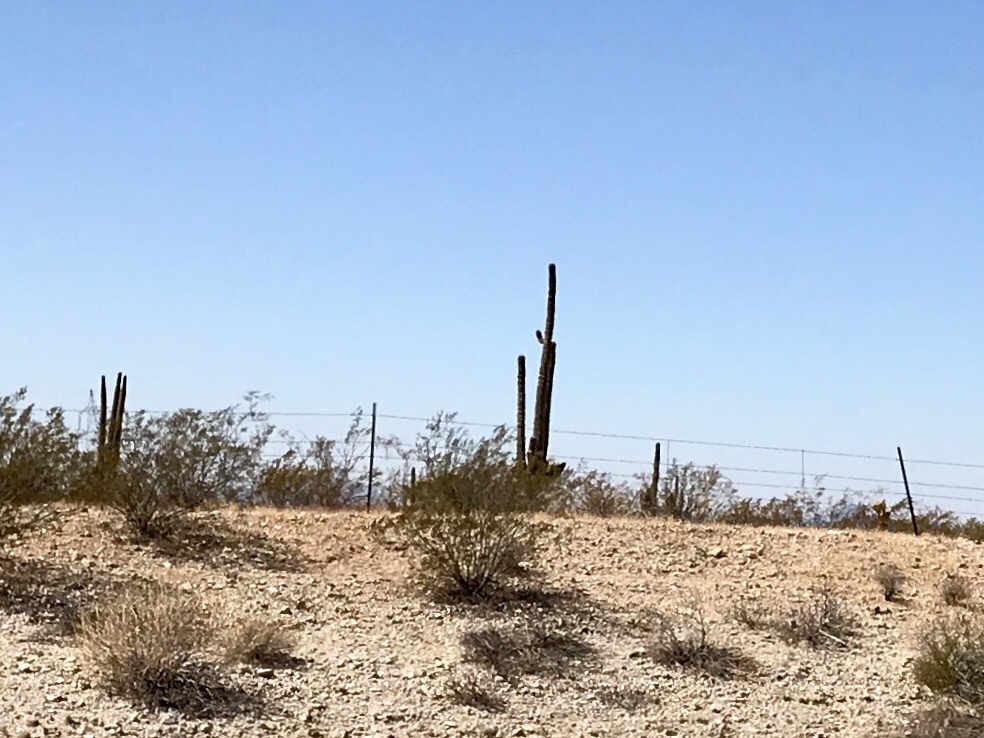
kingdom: Plantae
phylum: Tracheophyta
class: Magnoliopsida
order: Caryophyllales
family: Cactaceae
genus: Carnegiea
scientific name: Carnegiea gigantea
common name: Saguaro
